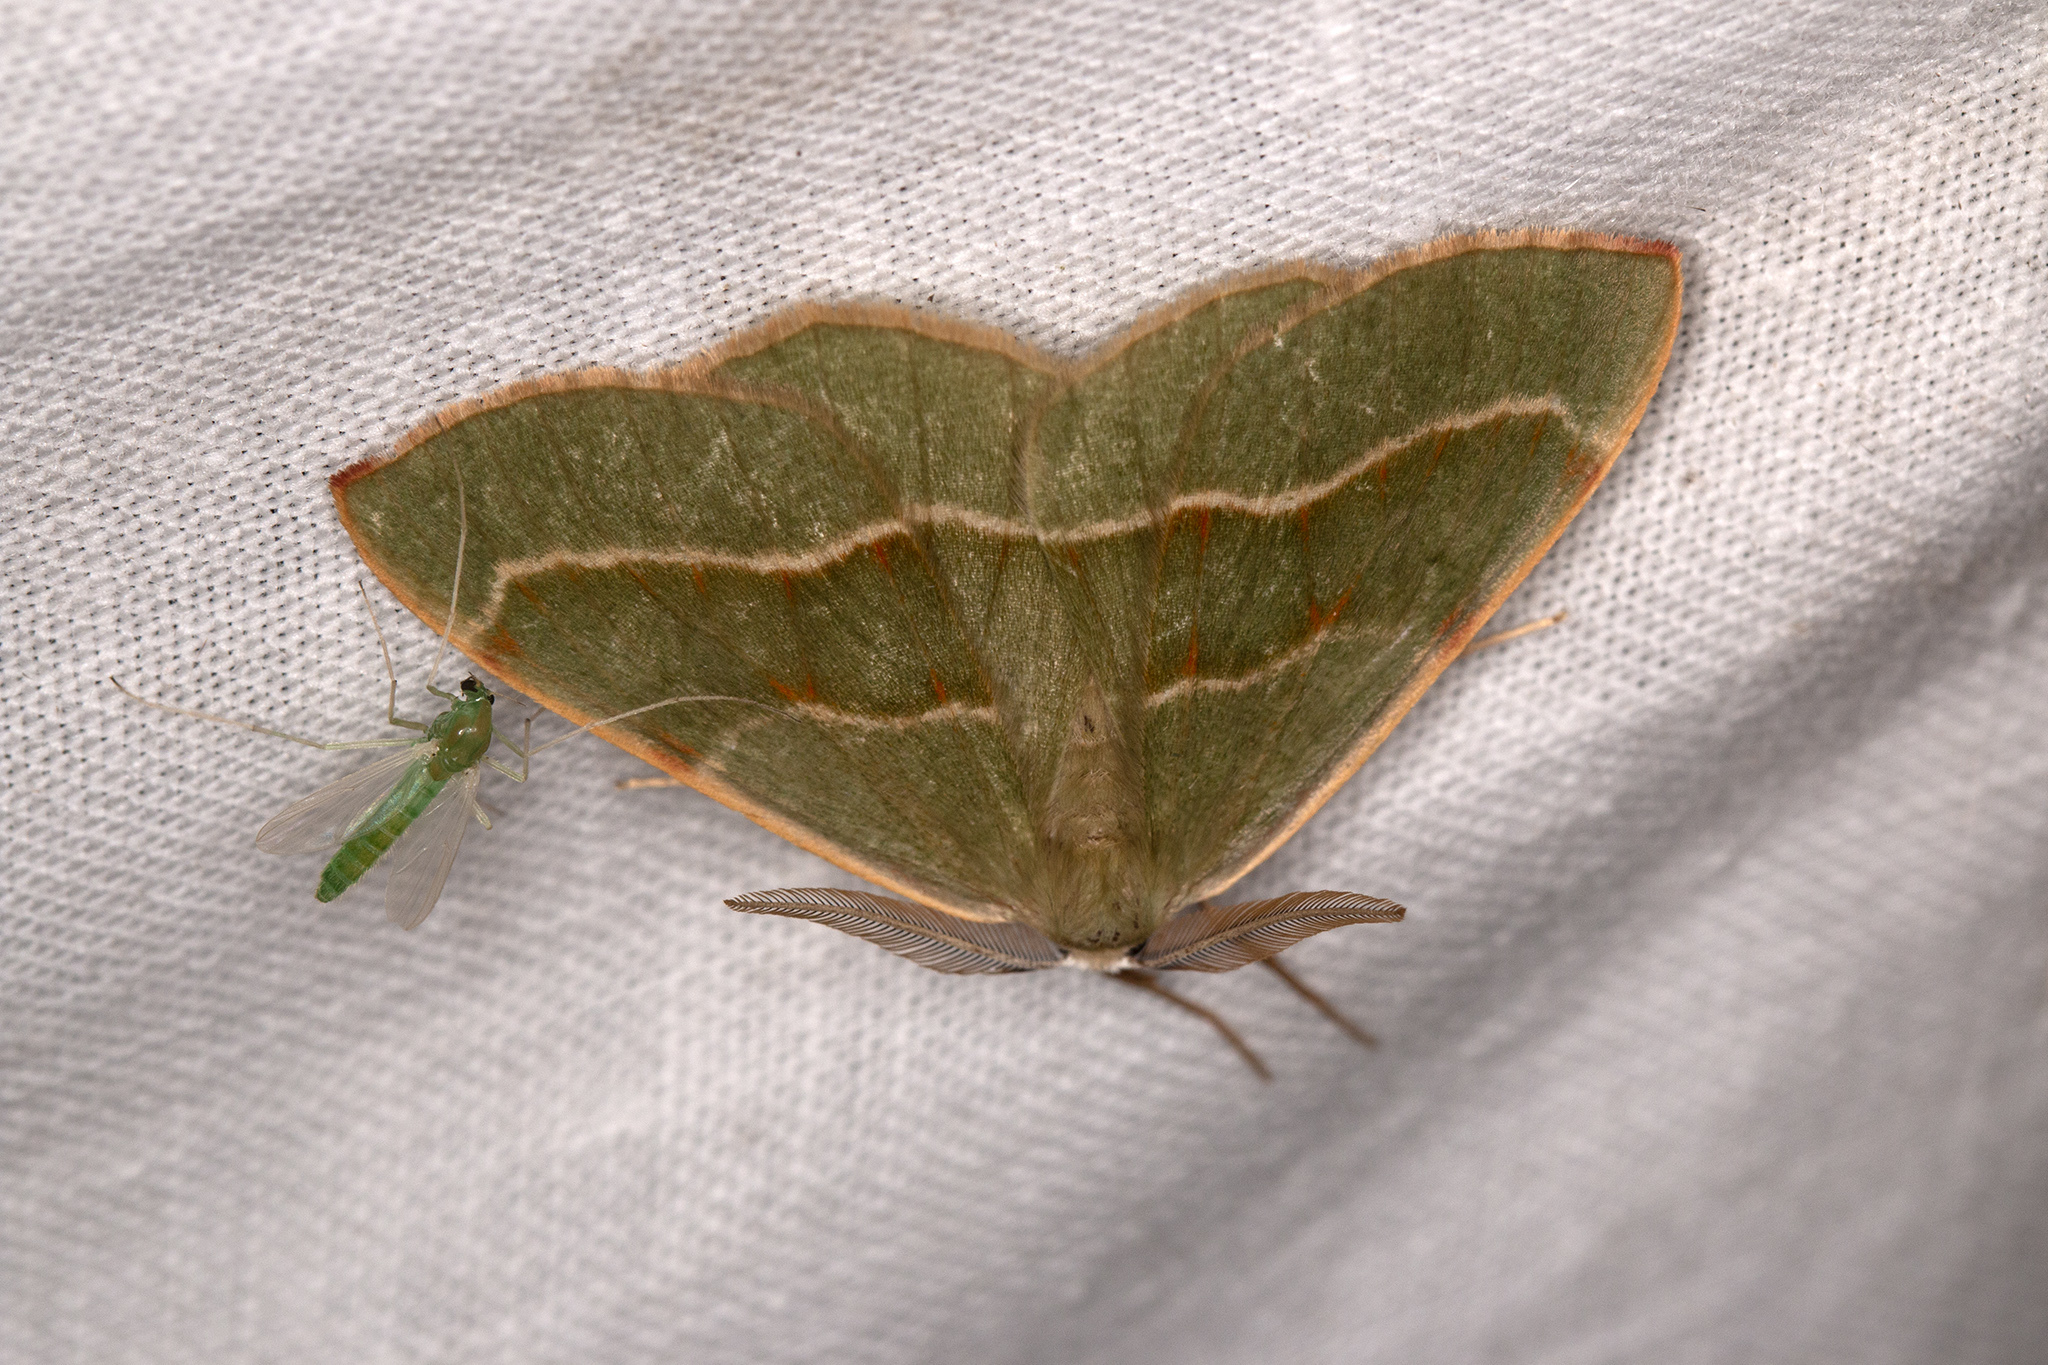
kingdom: Animalia
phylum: Arthropoda
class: Insecta
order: Lepidoptera
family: Geometridae
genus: Hylaea
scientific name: Hylaea fasciaria
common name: Barred red
